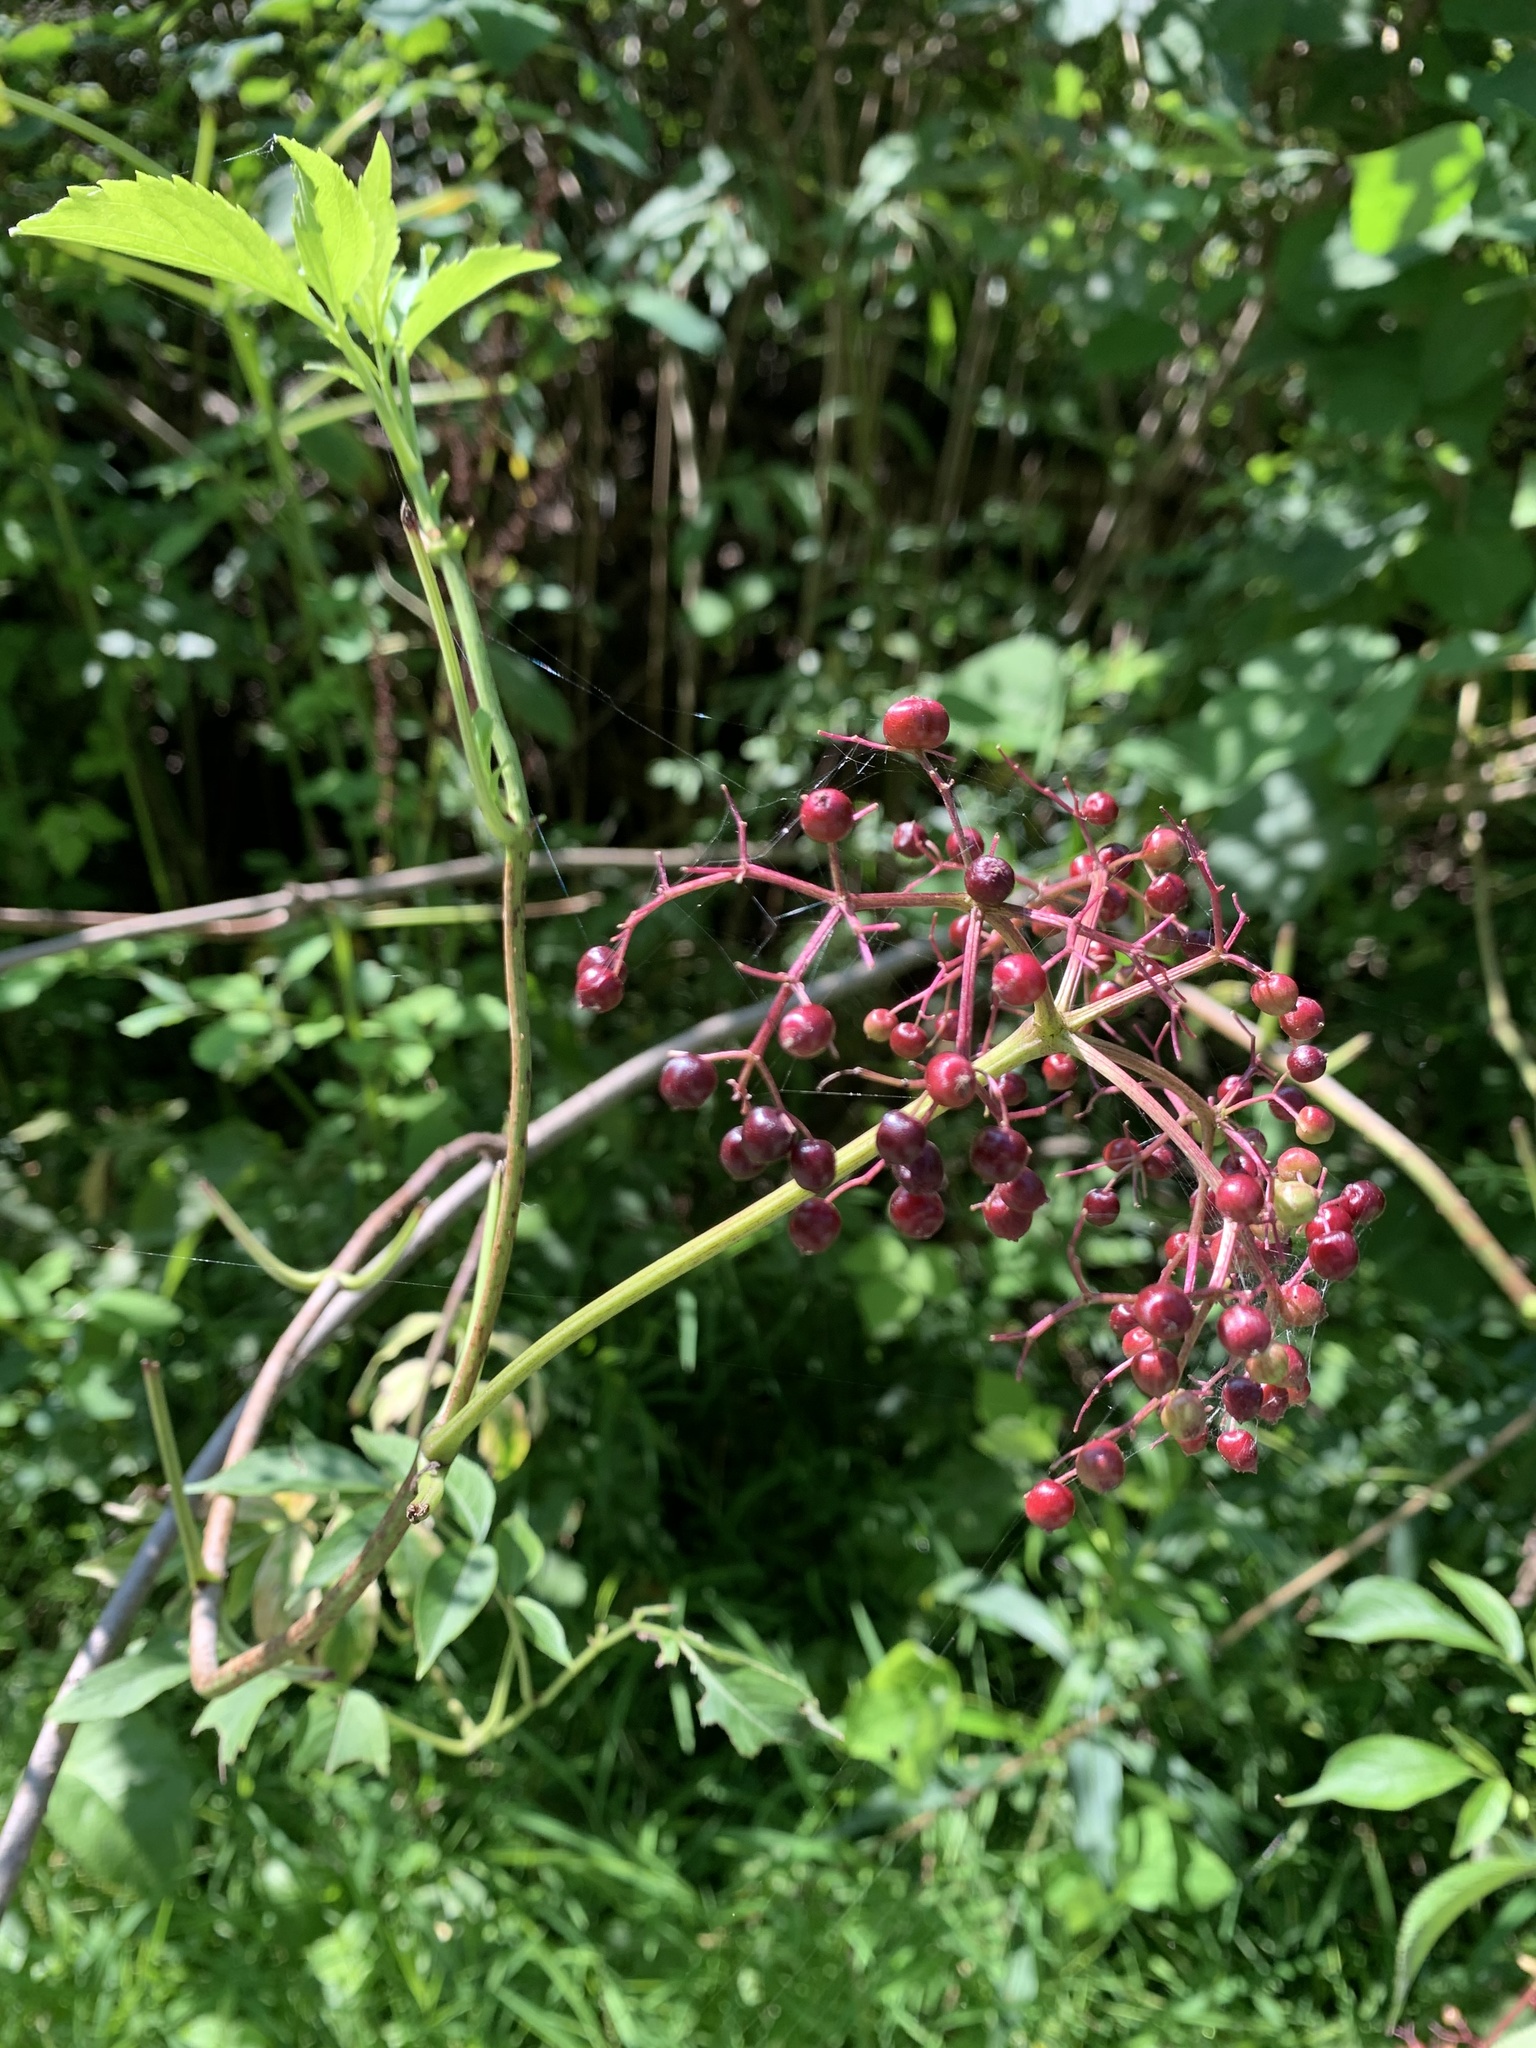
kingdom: Plantae
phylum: Tracheophyta
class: Magnoliopsida
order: Dipsacales
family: Viburnaceae
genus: Sambucus
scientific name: Sambucus canadensis
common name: American elder
